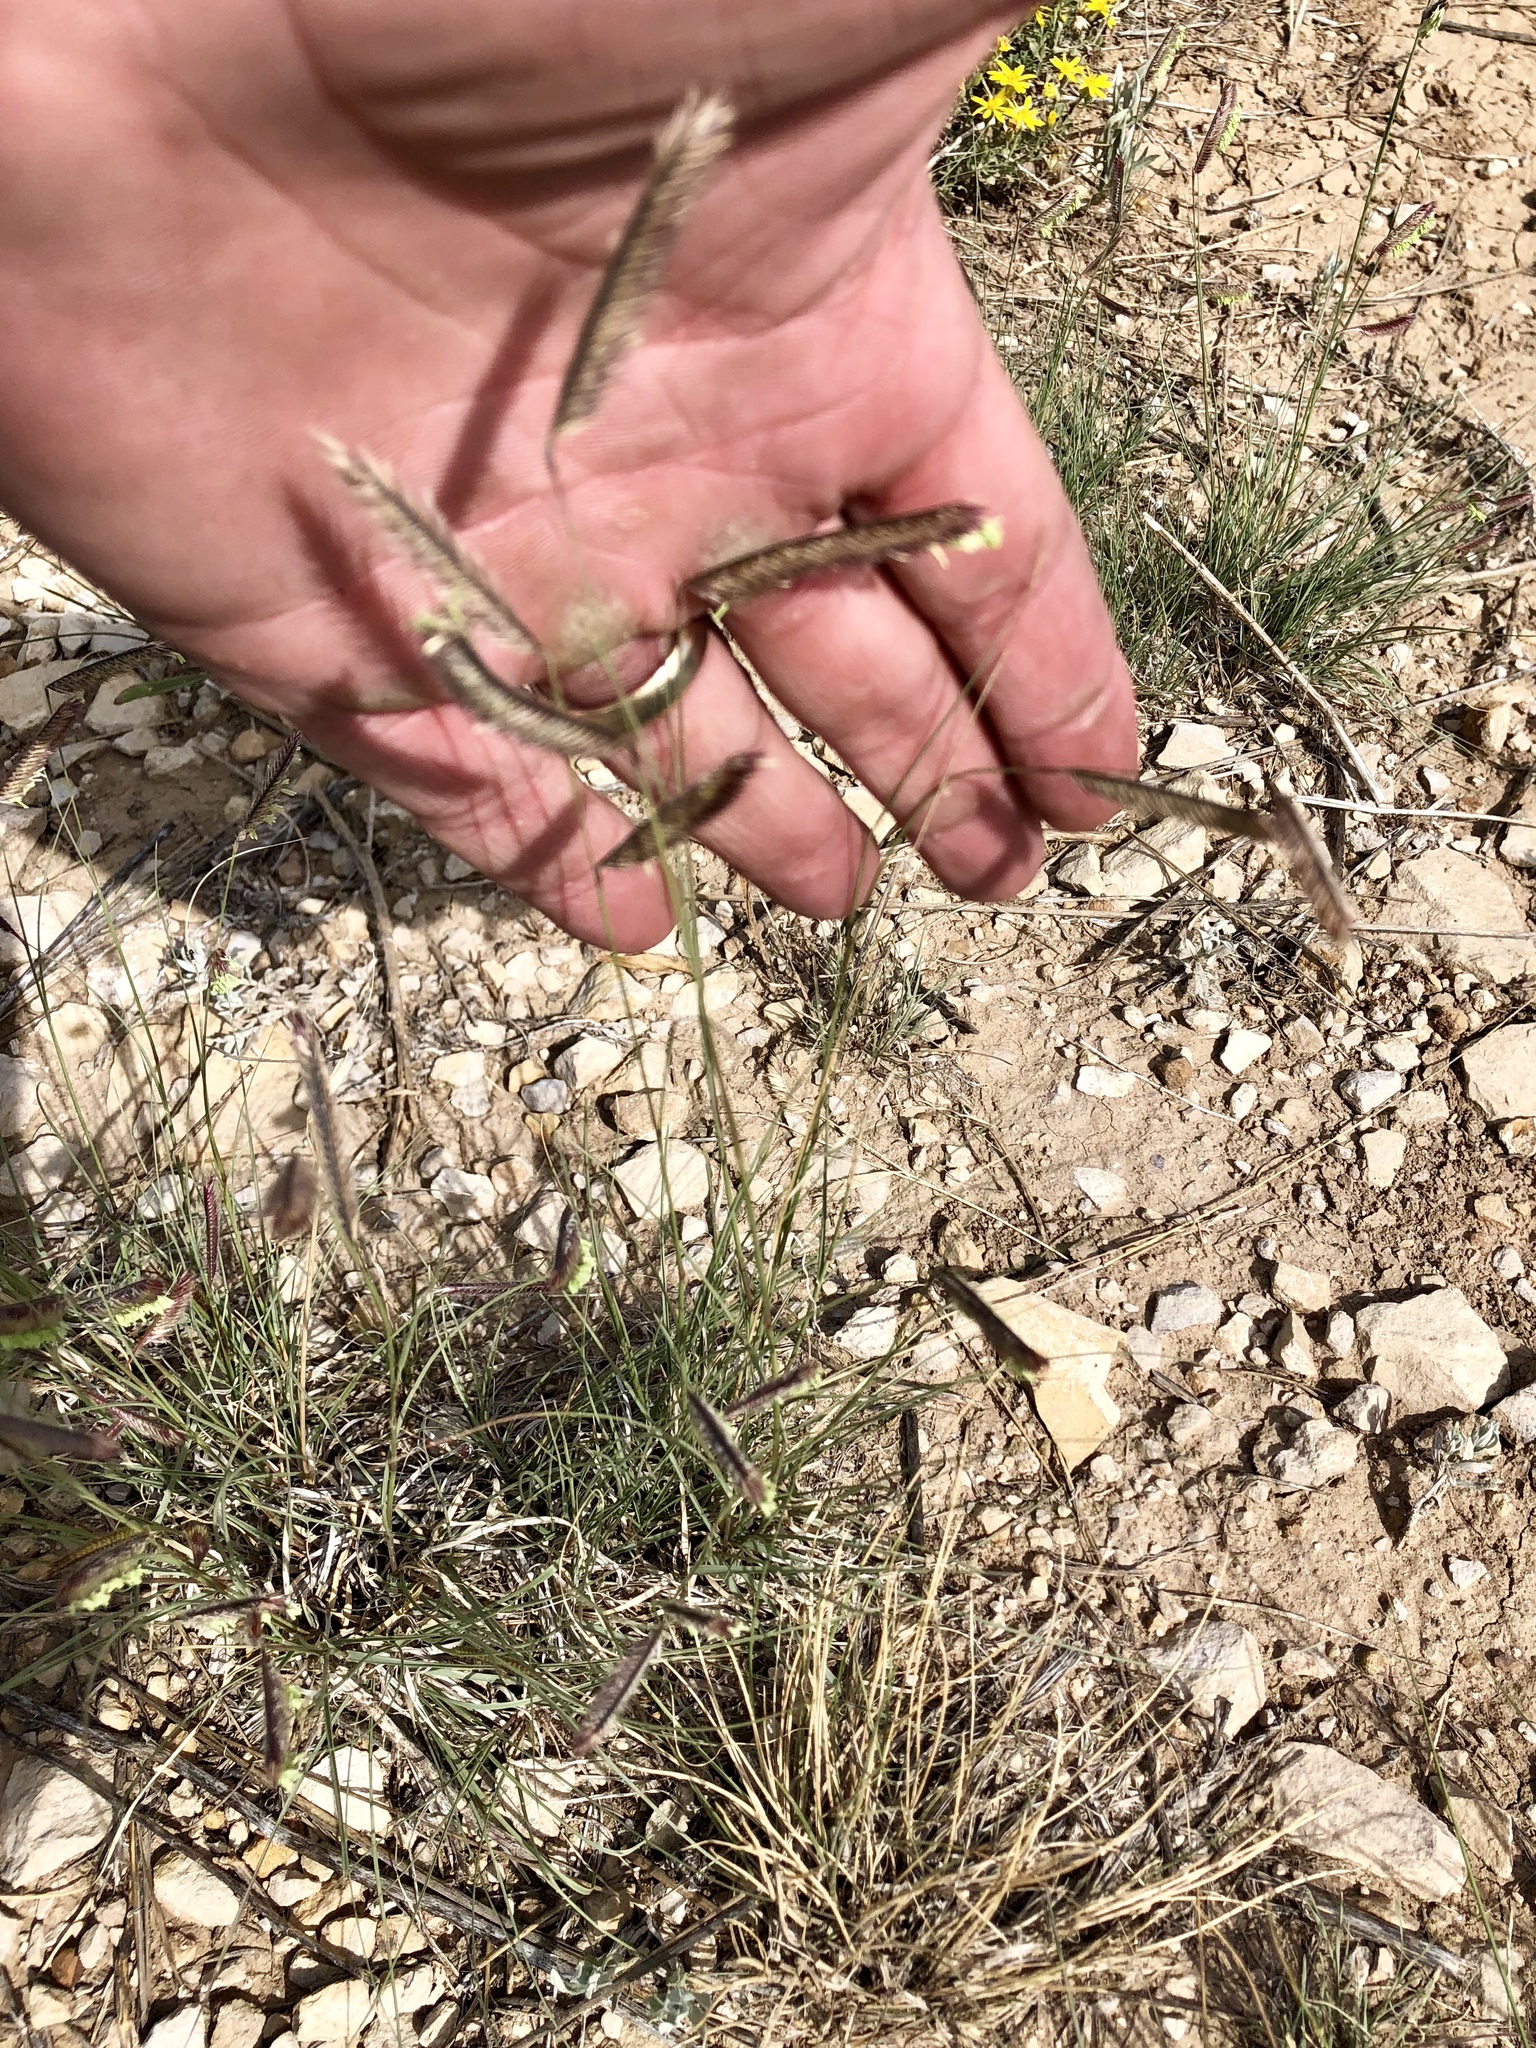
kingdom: Plantae
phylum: Tracheophyta
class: Liliopsida
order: Poales
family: Poaceae
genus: Bouteloua
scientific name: Bouteloua gracilis
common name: Blue grama
